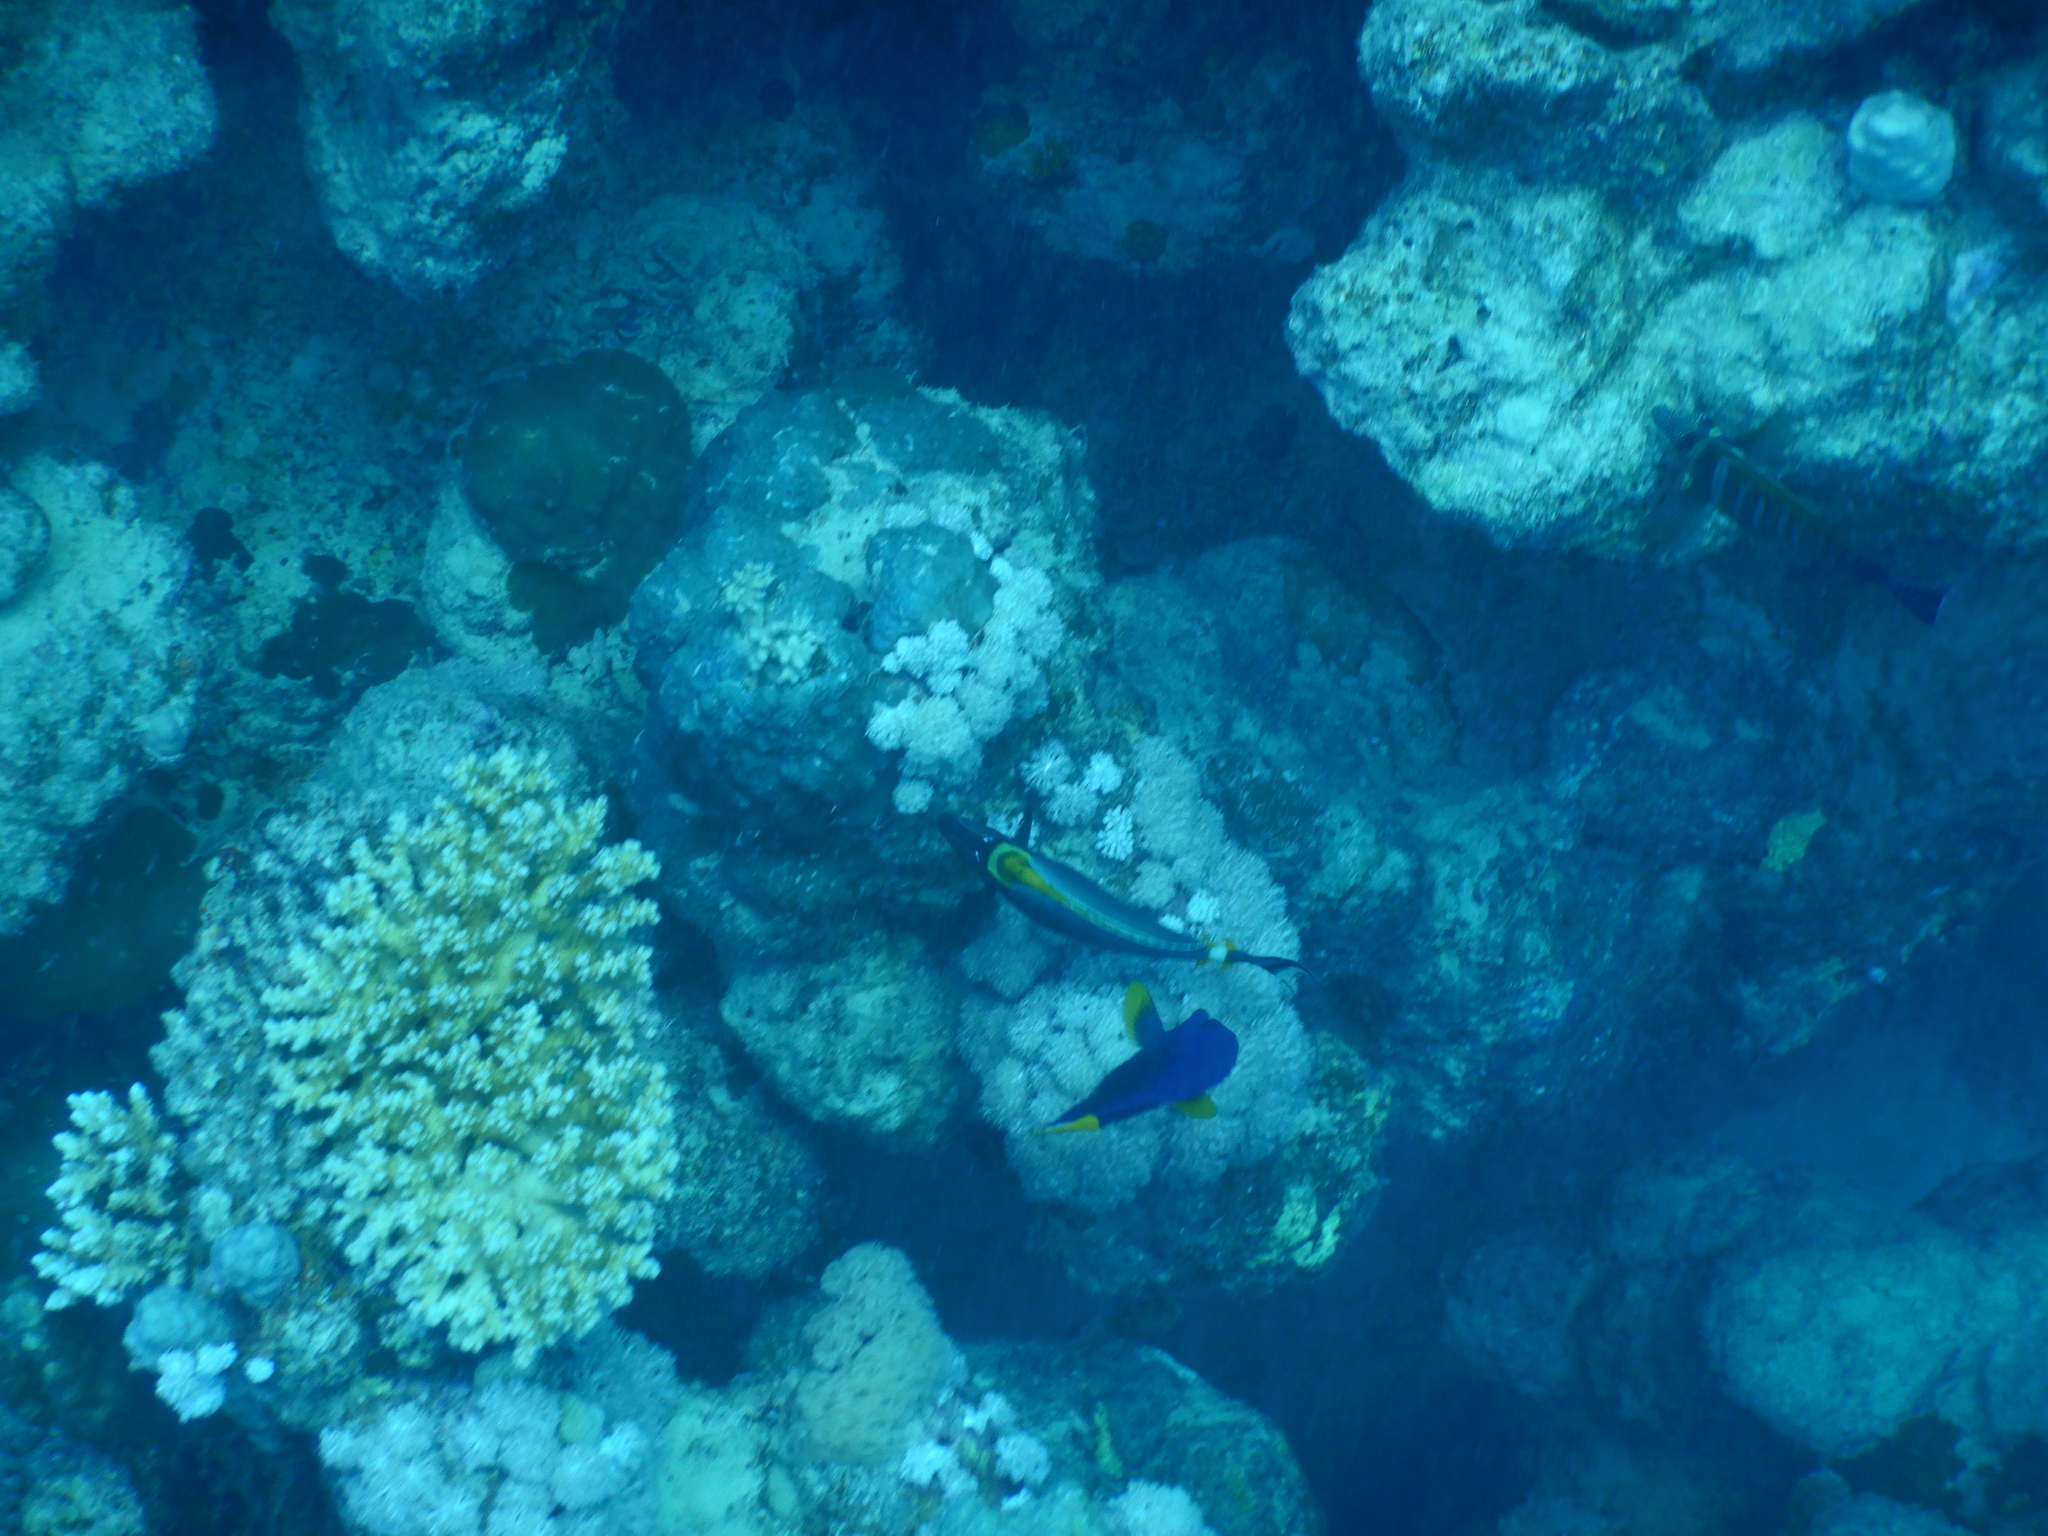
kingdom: Animalia
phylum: Chordata
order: Perciformes
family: Acanthuridae
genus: Zebrasoma
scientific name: Zebrasoma xanthurum
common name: Purple tang
